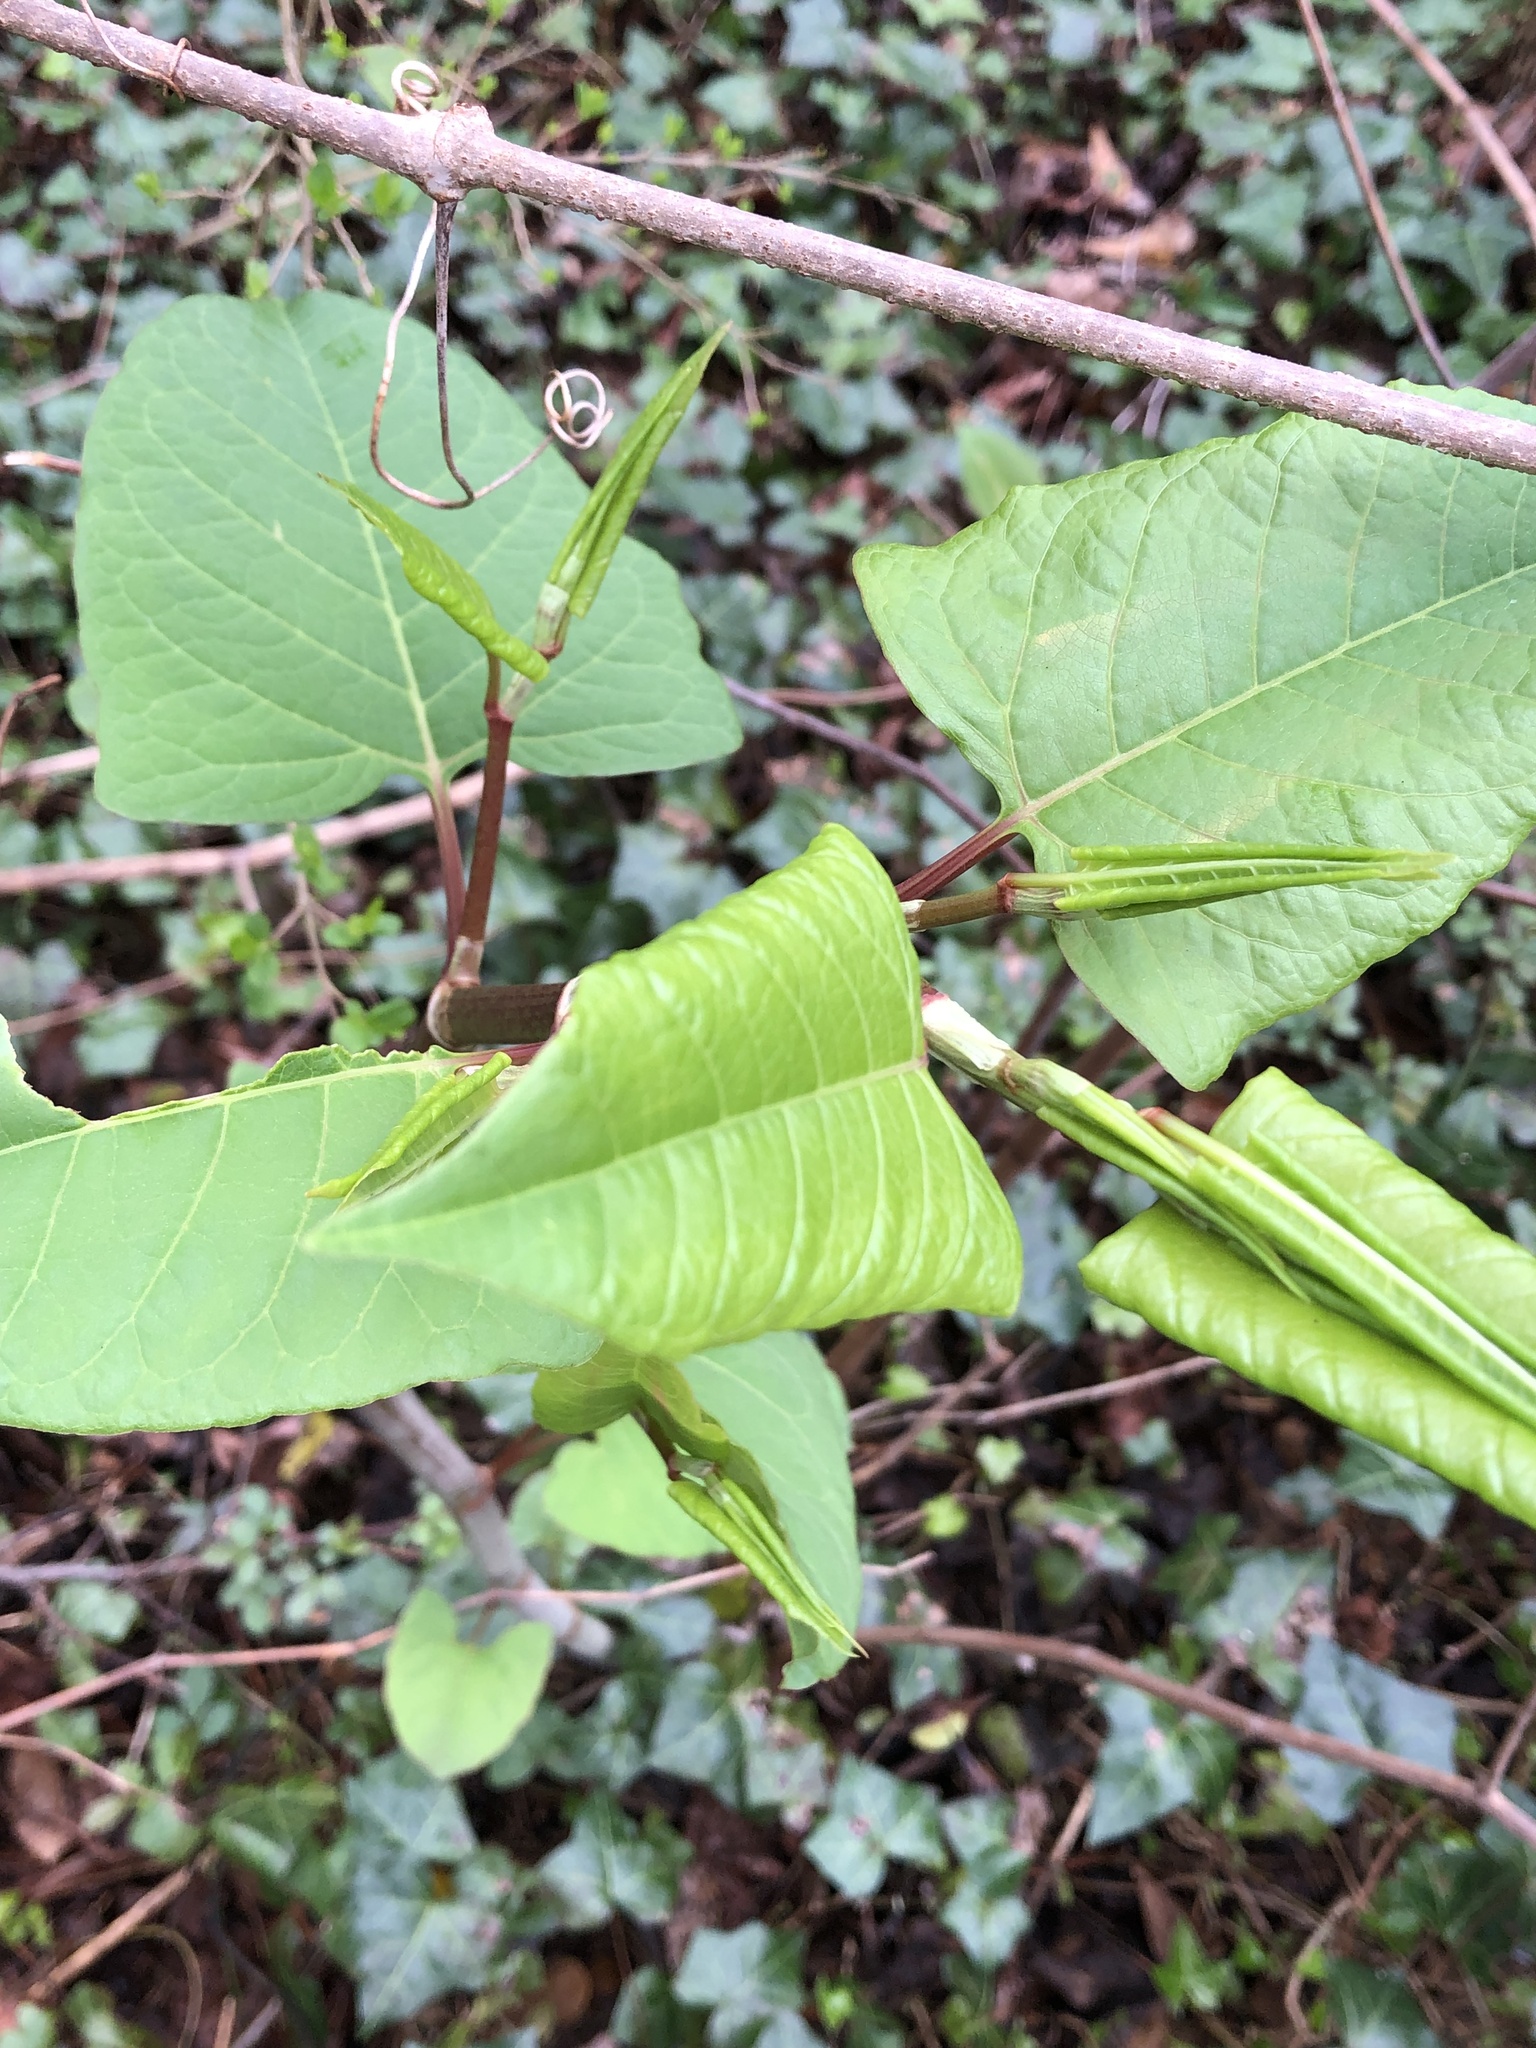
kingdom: Plantae
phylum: Tracheophyta
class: Magnoliopsida
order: Caryophyllales
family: Polygonaceae
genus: Reynoutria
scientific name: Reynoutria japonica
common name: Japanese knotweed
